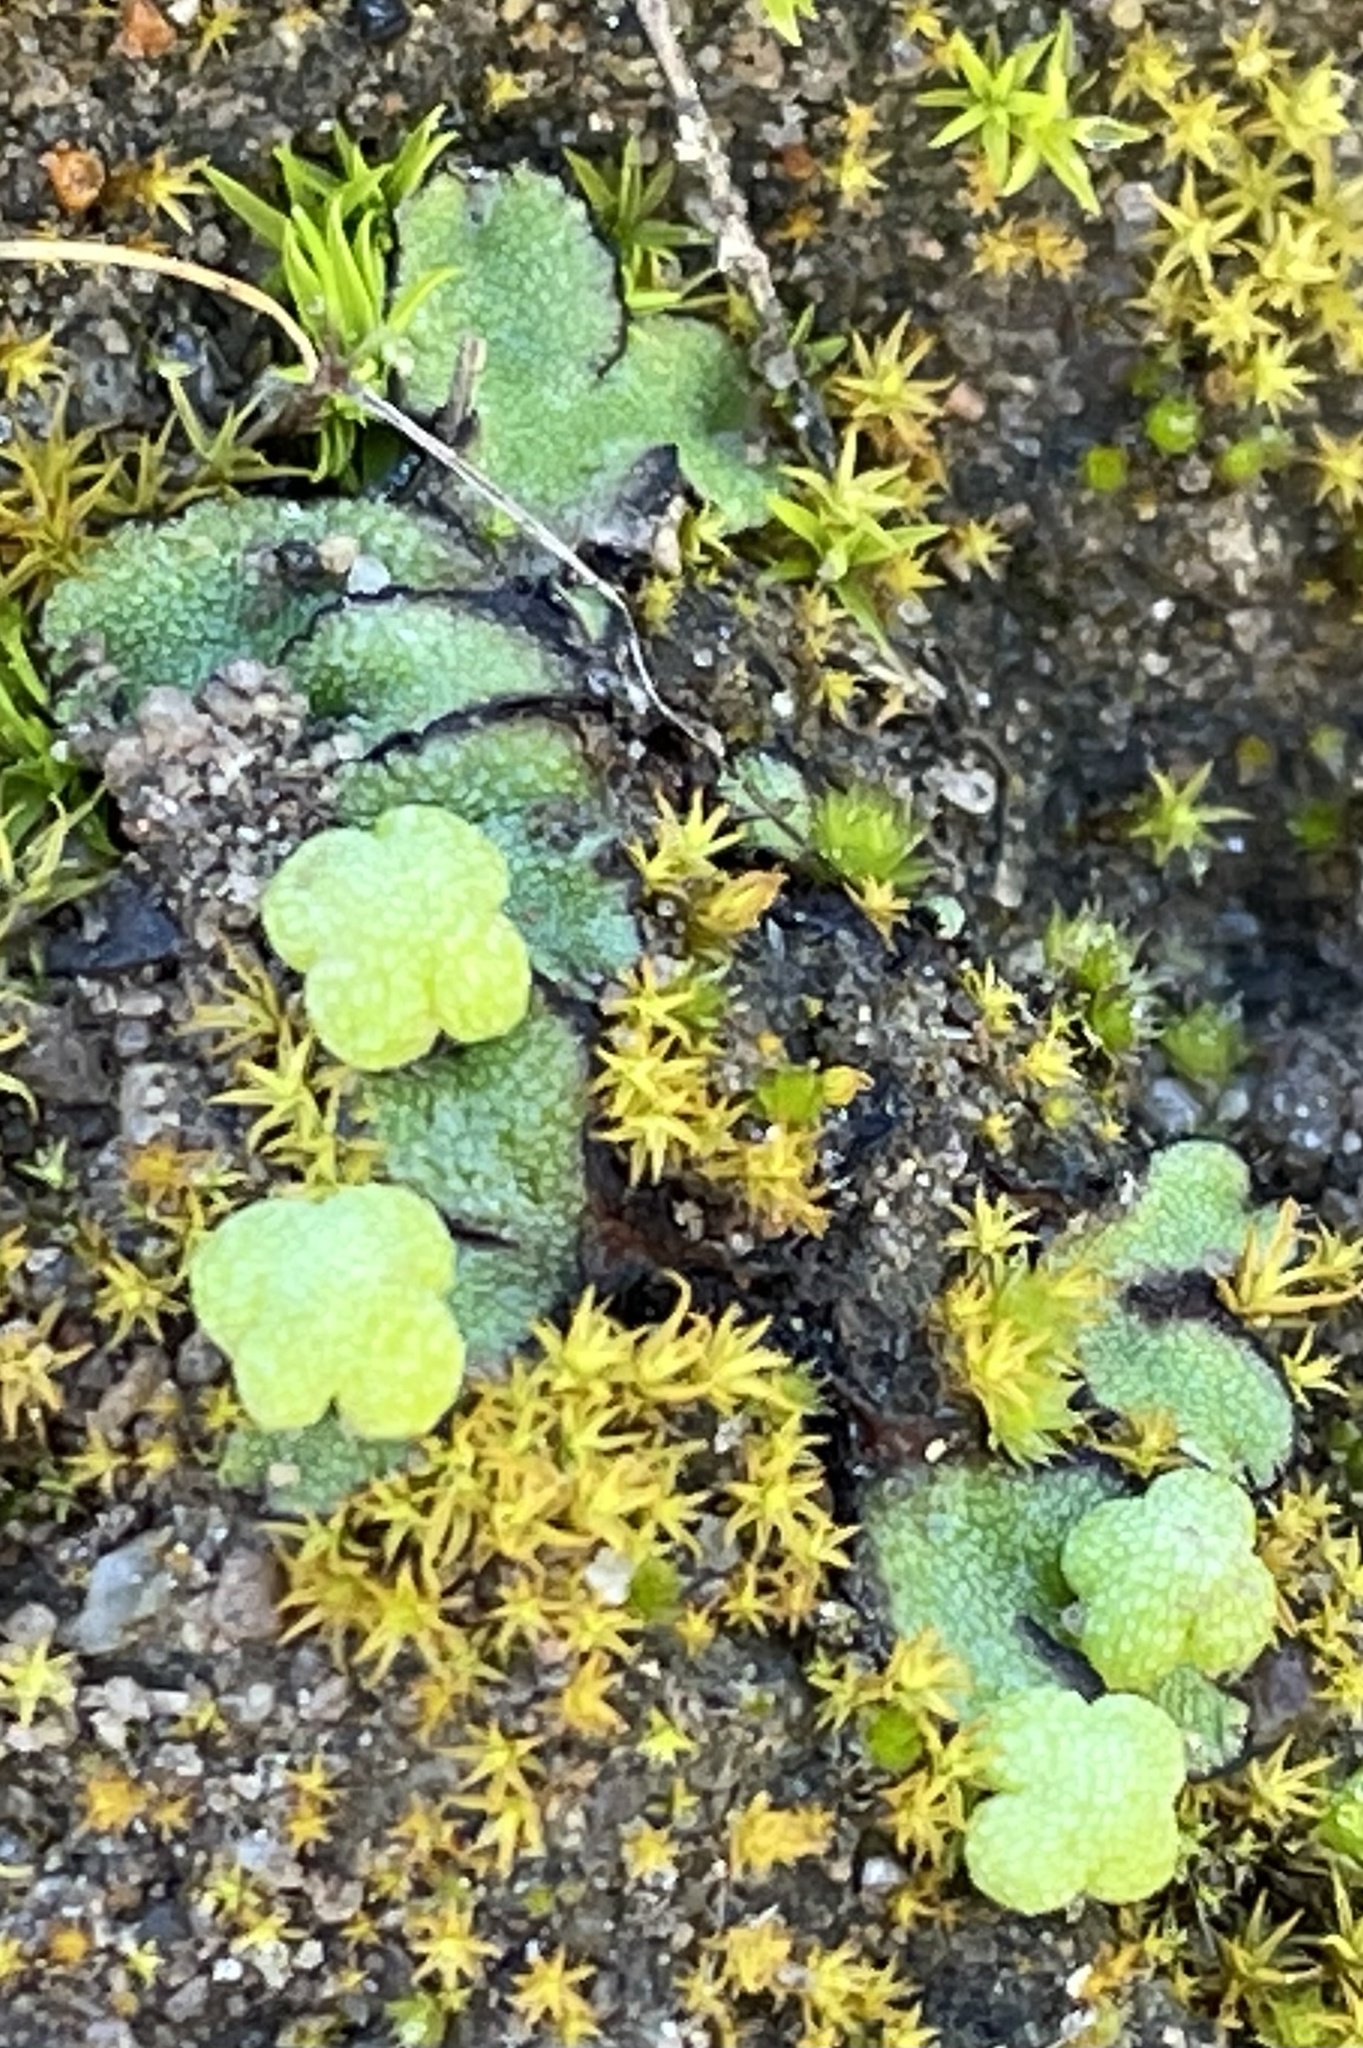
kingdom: Plantae
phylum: Marchantiophyta
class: Marchantiopsida
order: Marchantiales
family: Aytoniaceae
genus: Asterella
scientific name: Asterella californica
